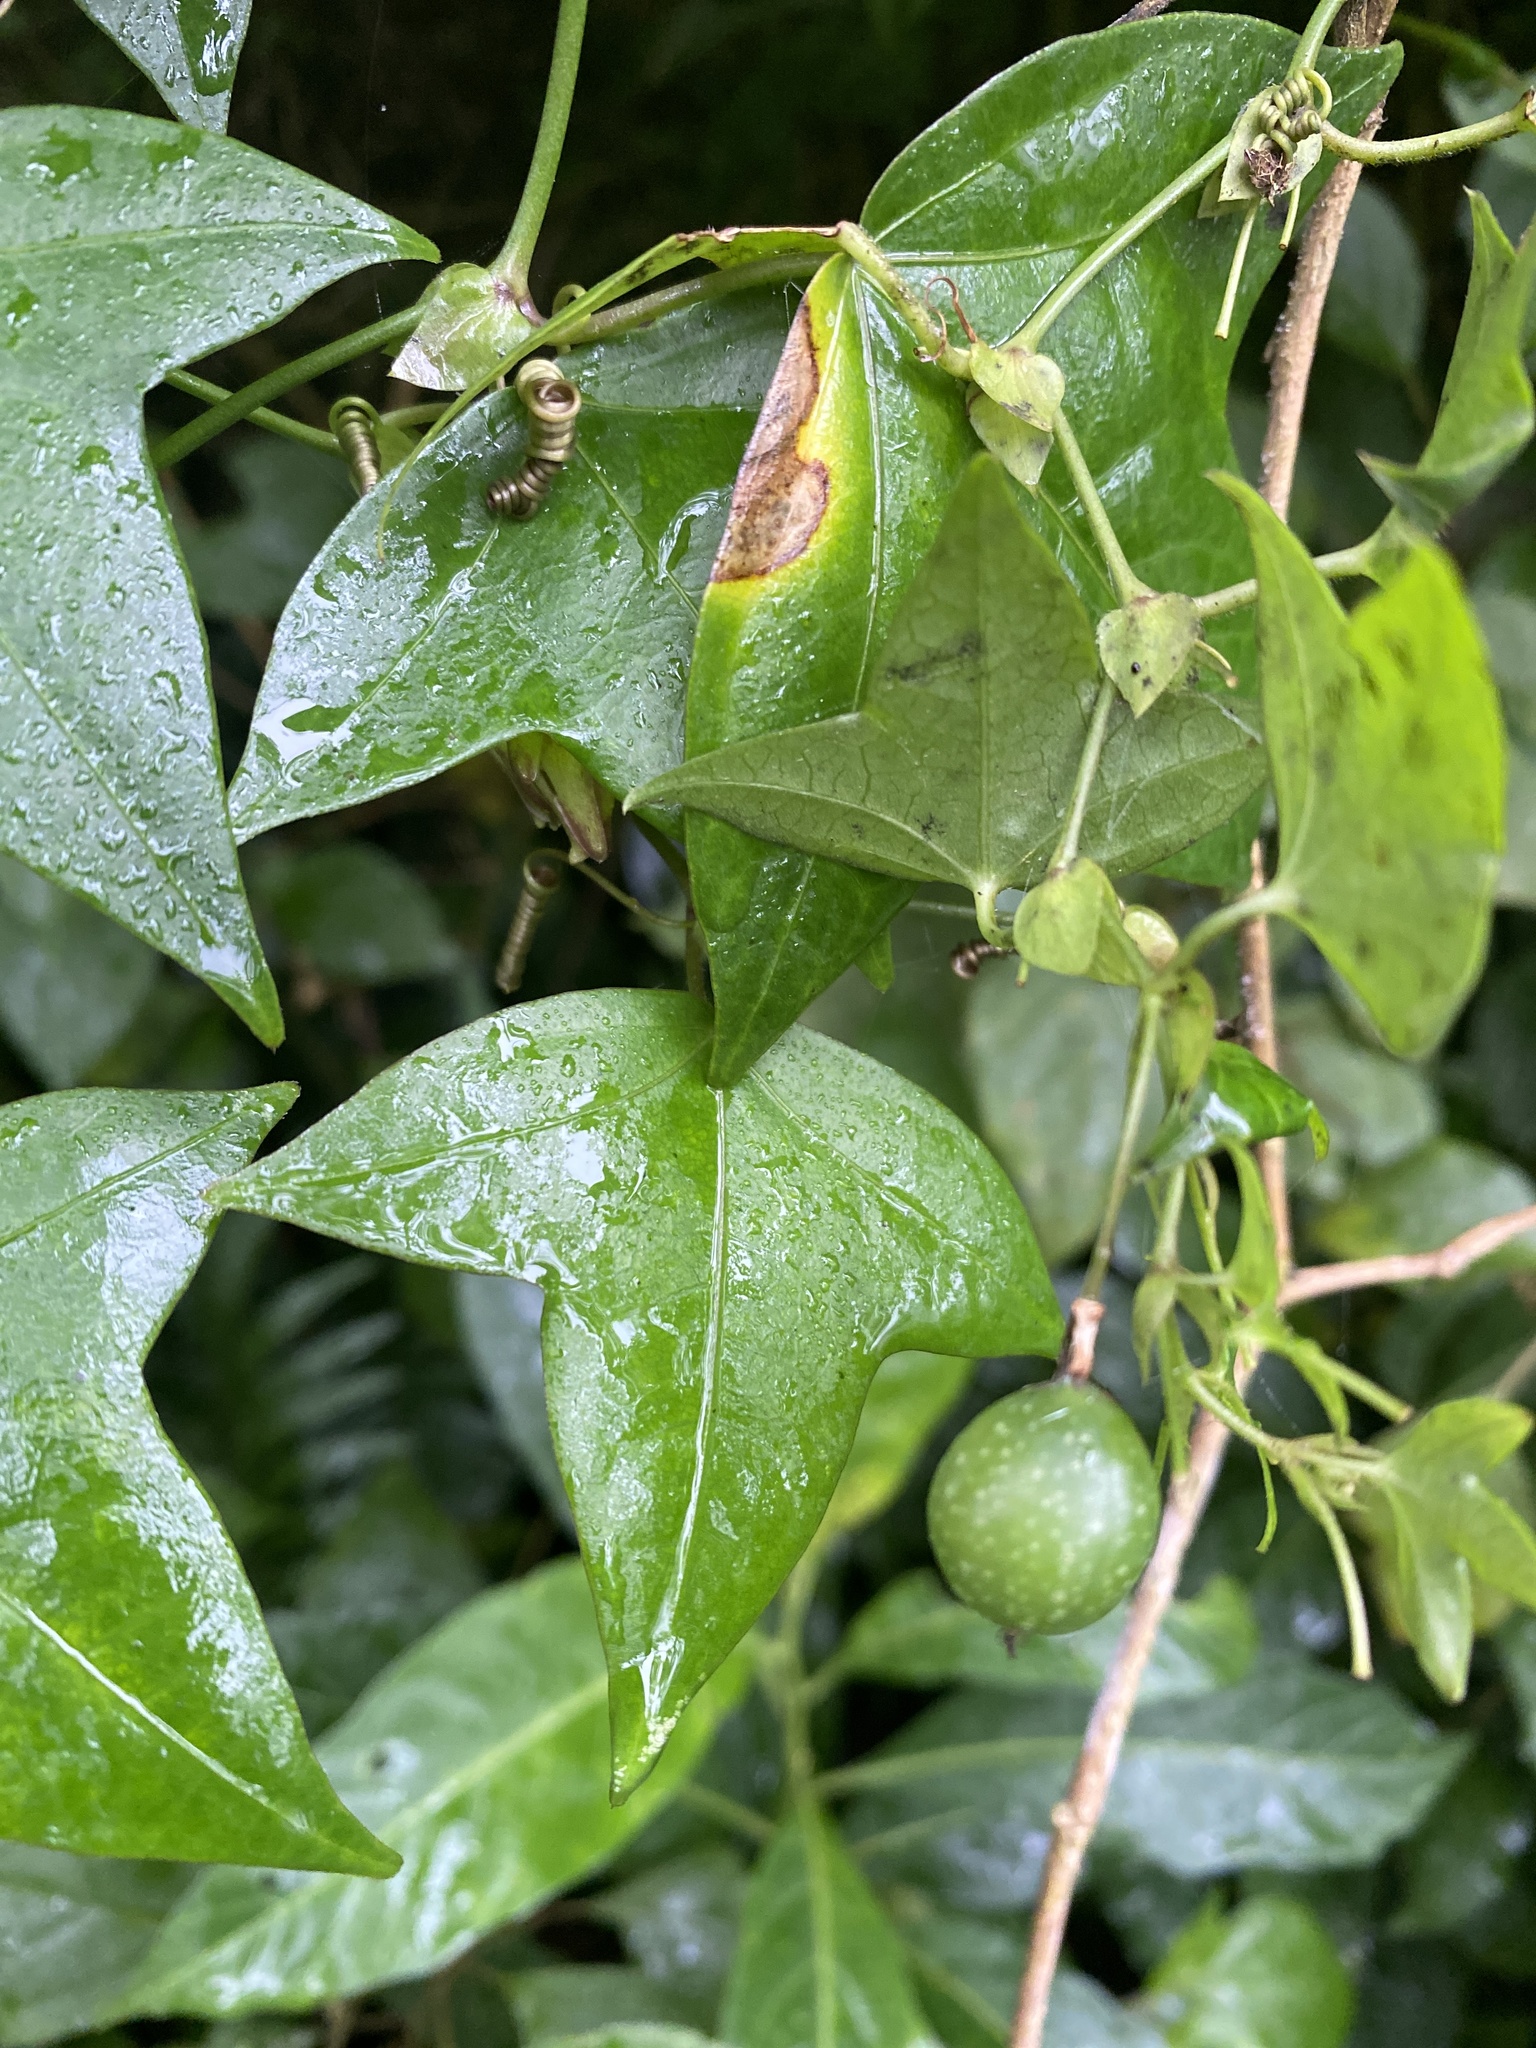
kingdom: Plantae
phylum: Tracheophyta
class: Magnoliopsida
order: Malpighiales
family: Passifloraceae
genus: Passiflora
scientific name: Passiflora eglandulosa
